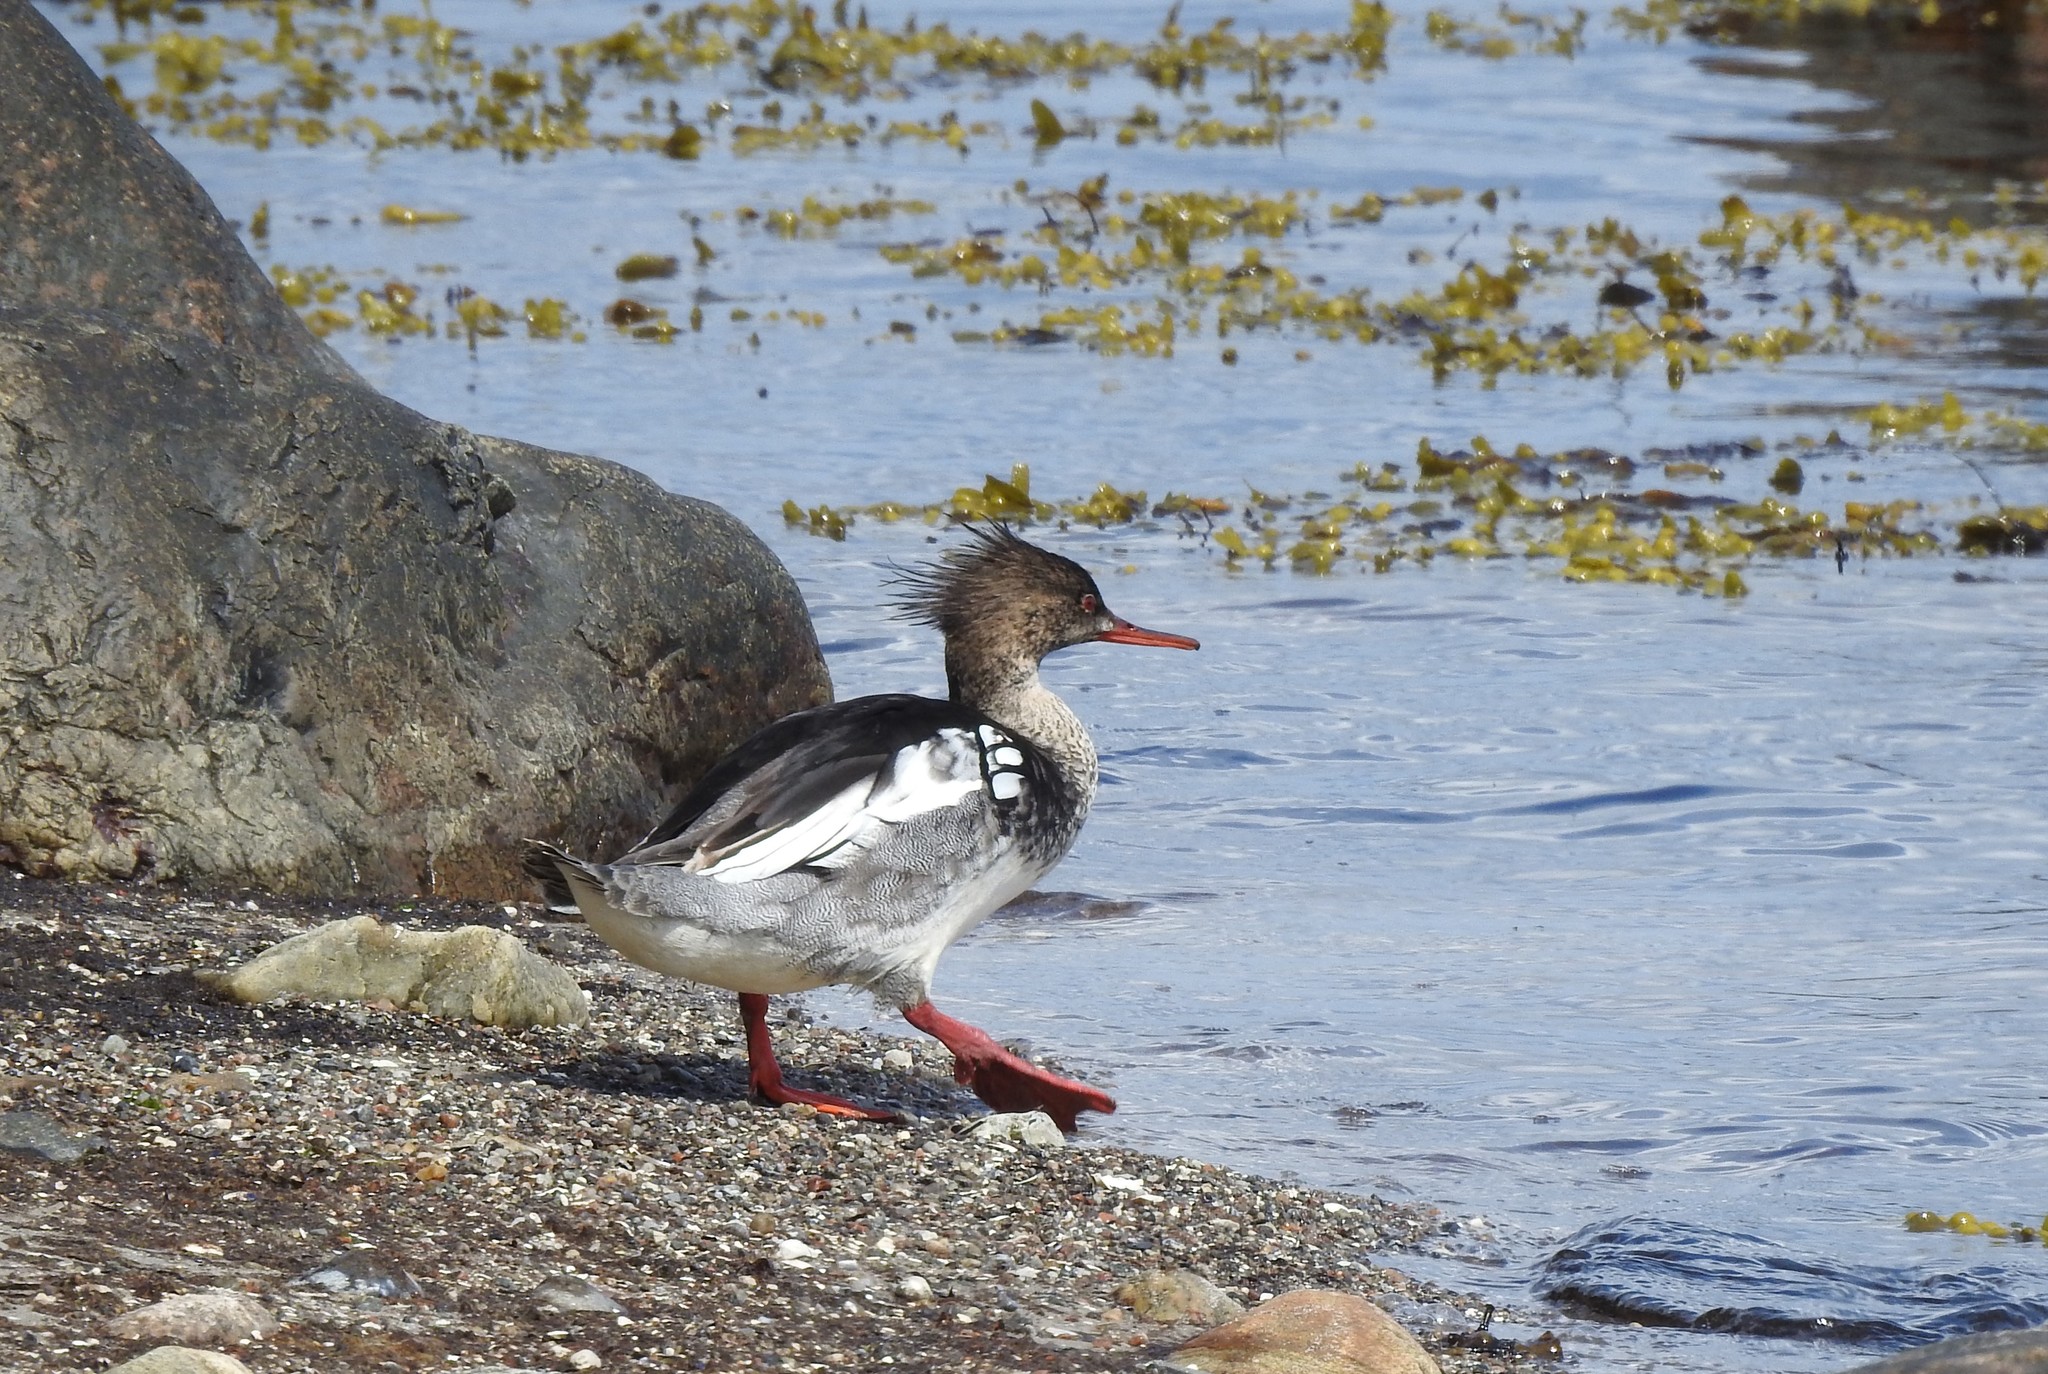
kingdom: Animalia
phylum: Chordata
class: Aves
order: Anseriformes
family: Anatidae
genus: Mergus
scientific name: Mergus serrator
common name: Red-breasted merganser
